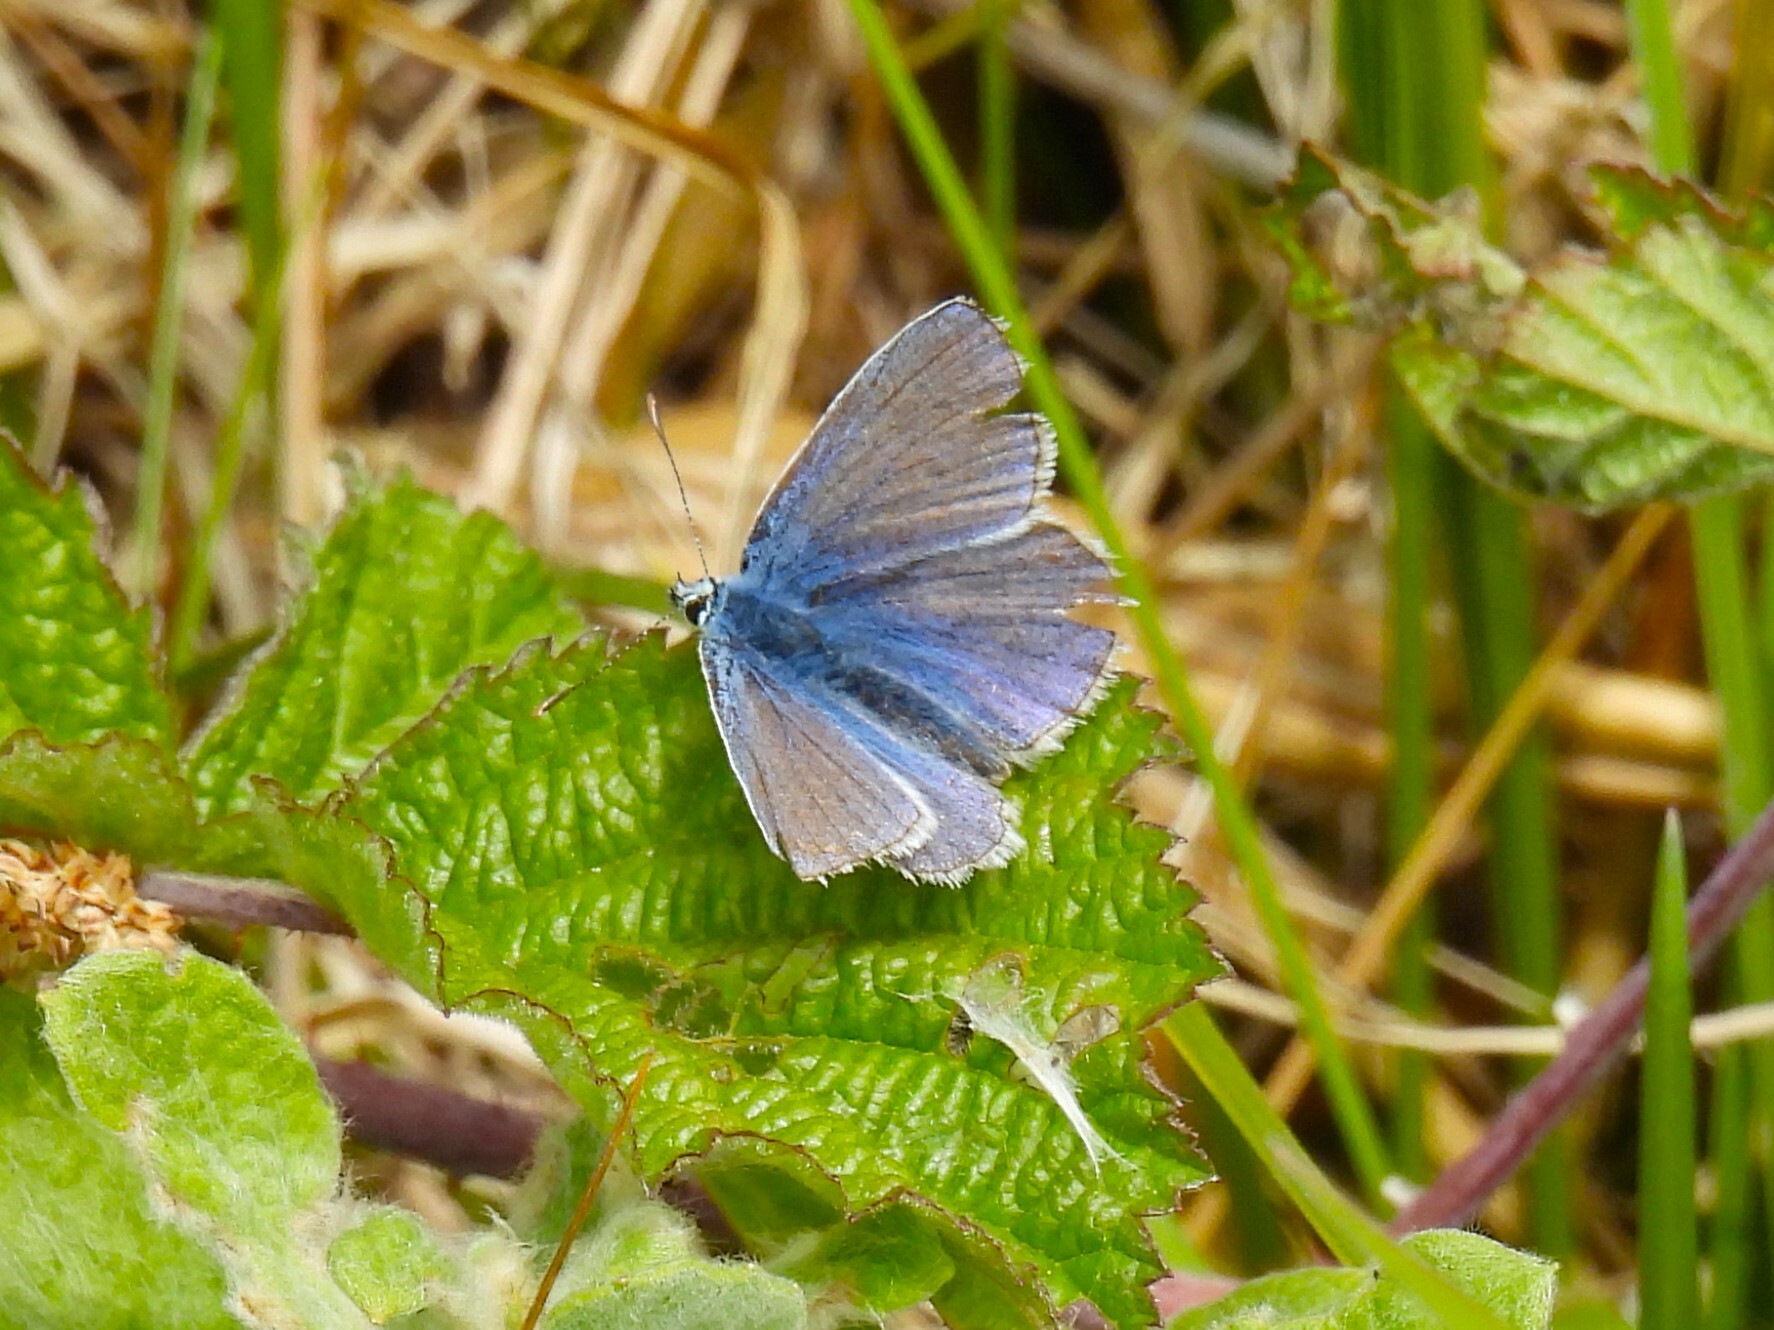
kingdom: Animalia
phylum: Arthropoda
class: Insecta
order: Lepidoptera
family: Lycaenidae
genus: Polyommatus
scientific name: Polyommatus icarus
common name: Common blue
